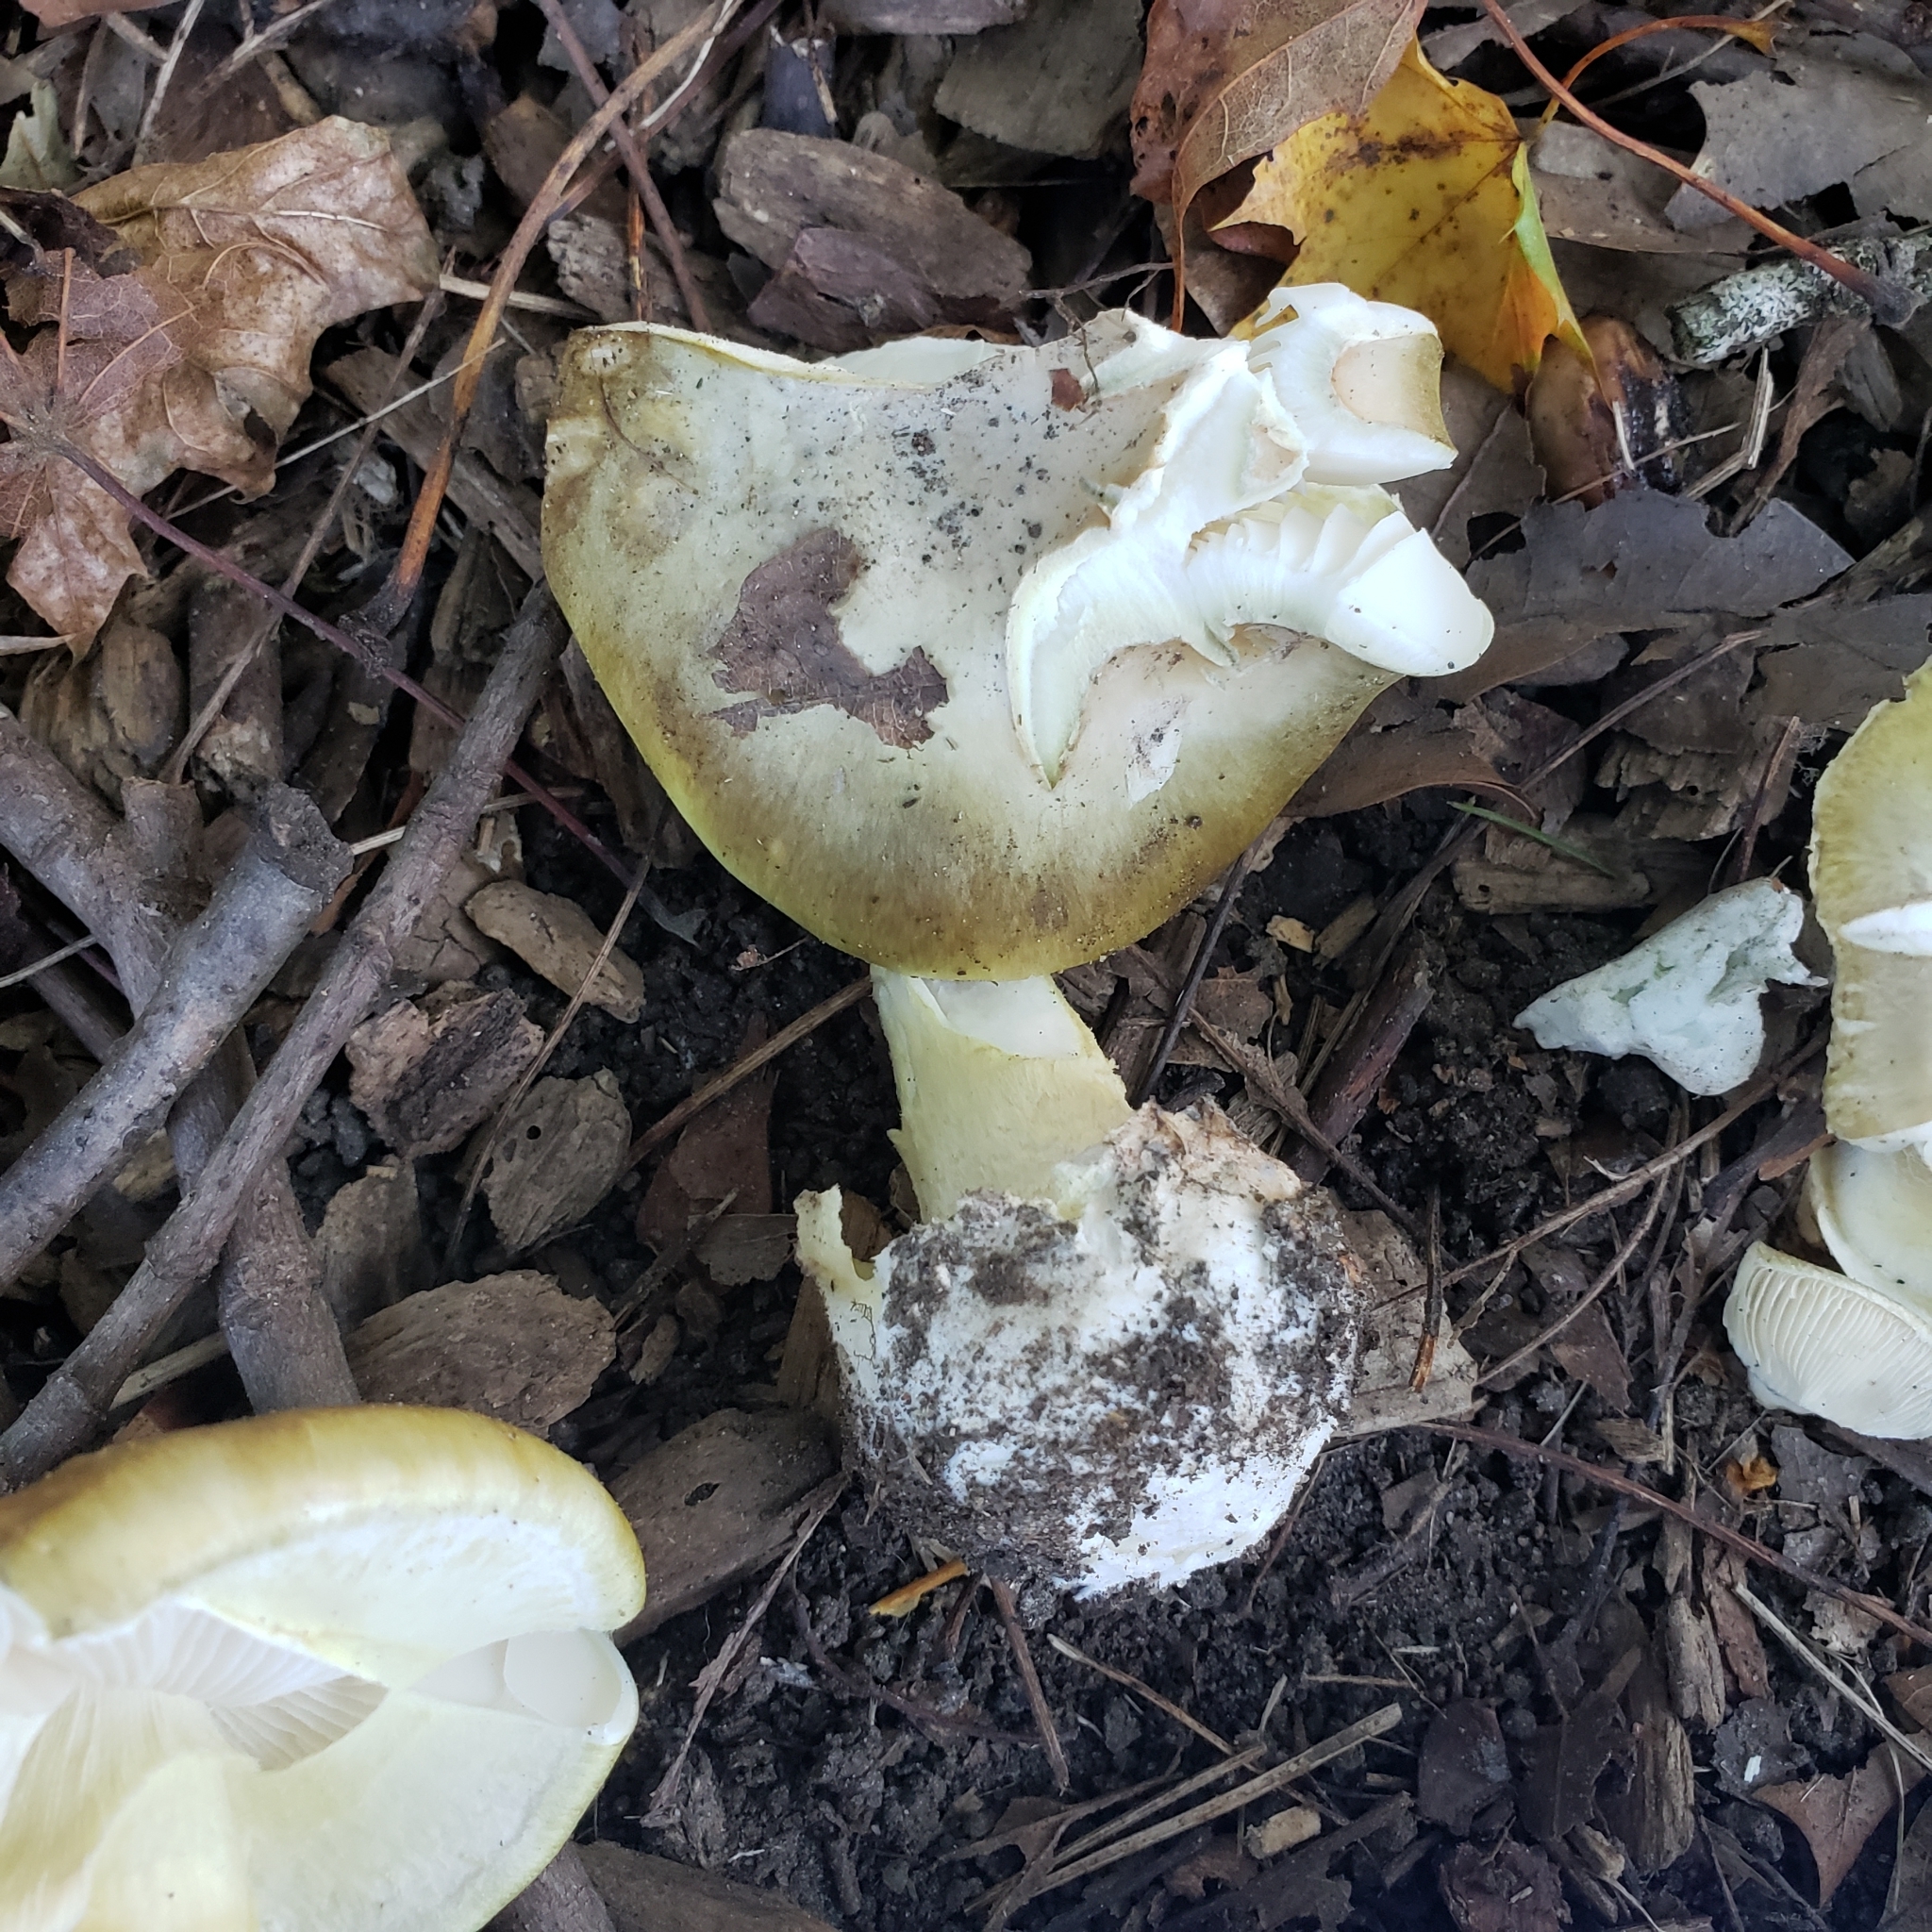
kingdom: Fungi
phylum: Basidiomycota
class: Agaricomycetes
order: Agaricales
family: Amanitaceae
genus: Amanita
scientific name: Amanita phalloides
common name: Death cap
